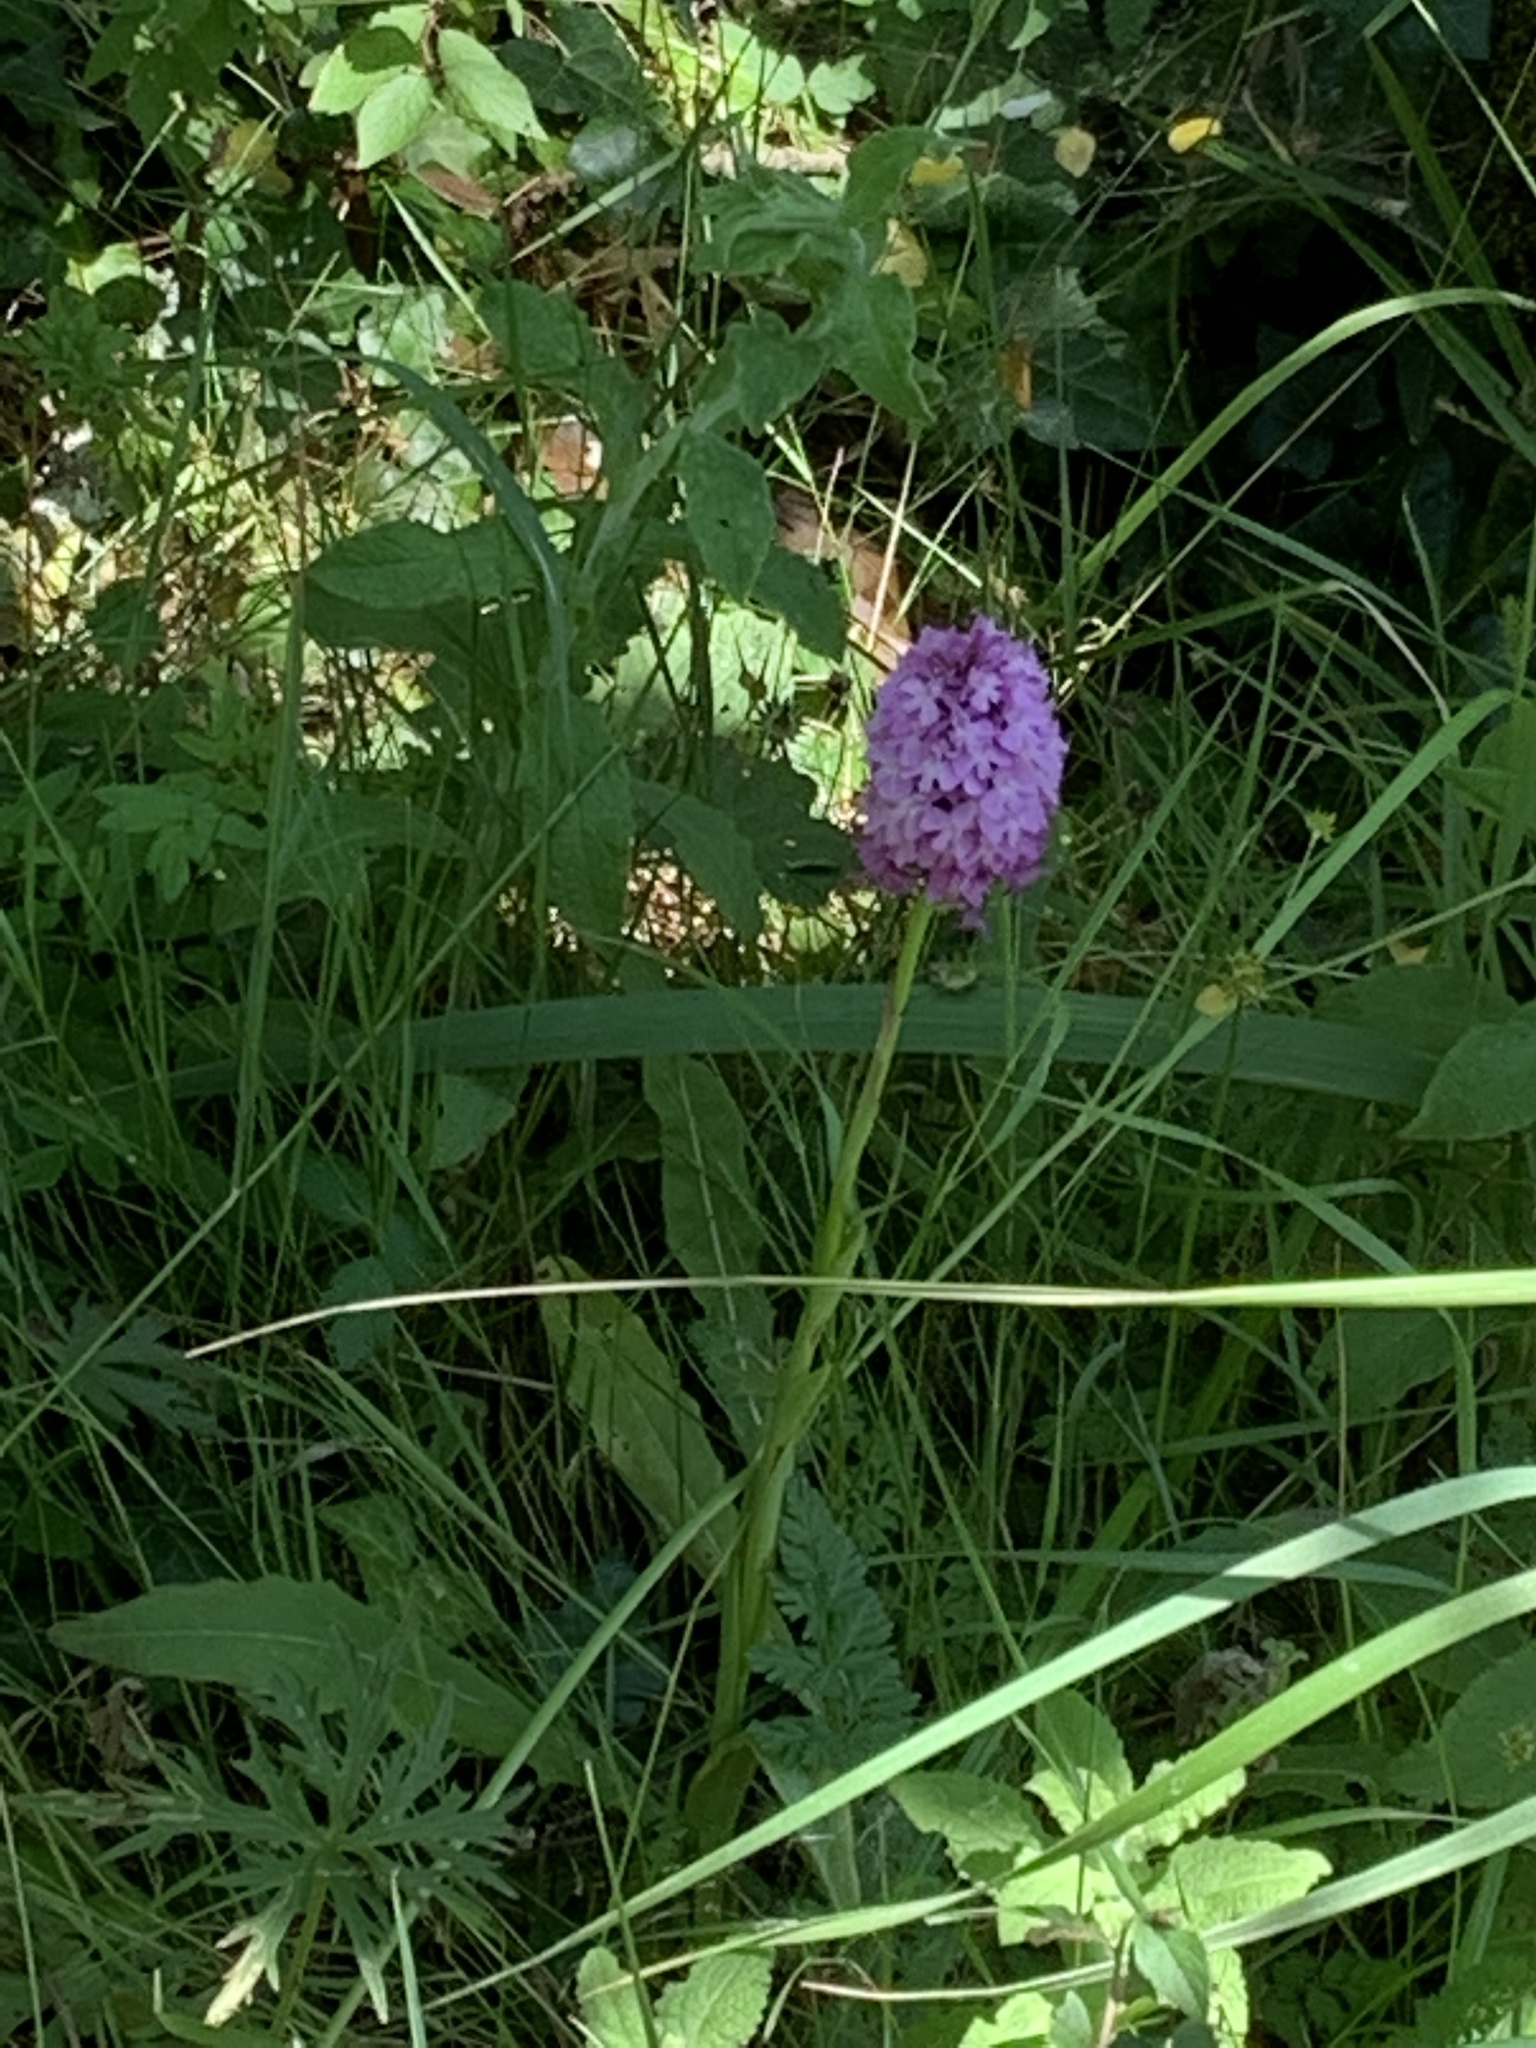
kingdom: Plantae
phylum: Tracheophyta
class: Liliopsida
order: Asparagales
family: Orchidaceae
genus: Anacamptis
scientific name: Anacamptis pyramidalis
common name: Pyramidal orchid
